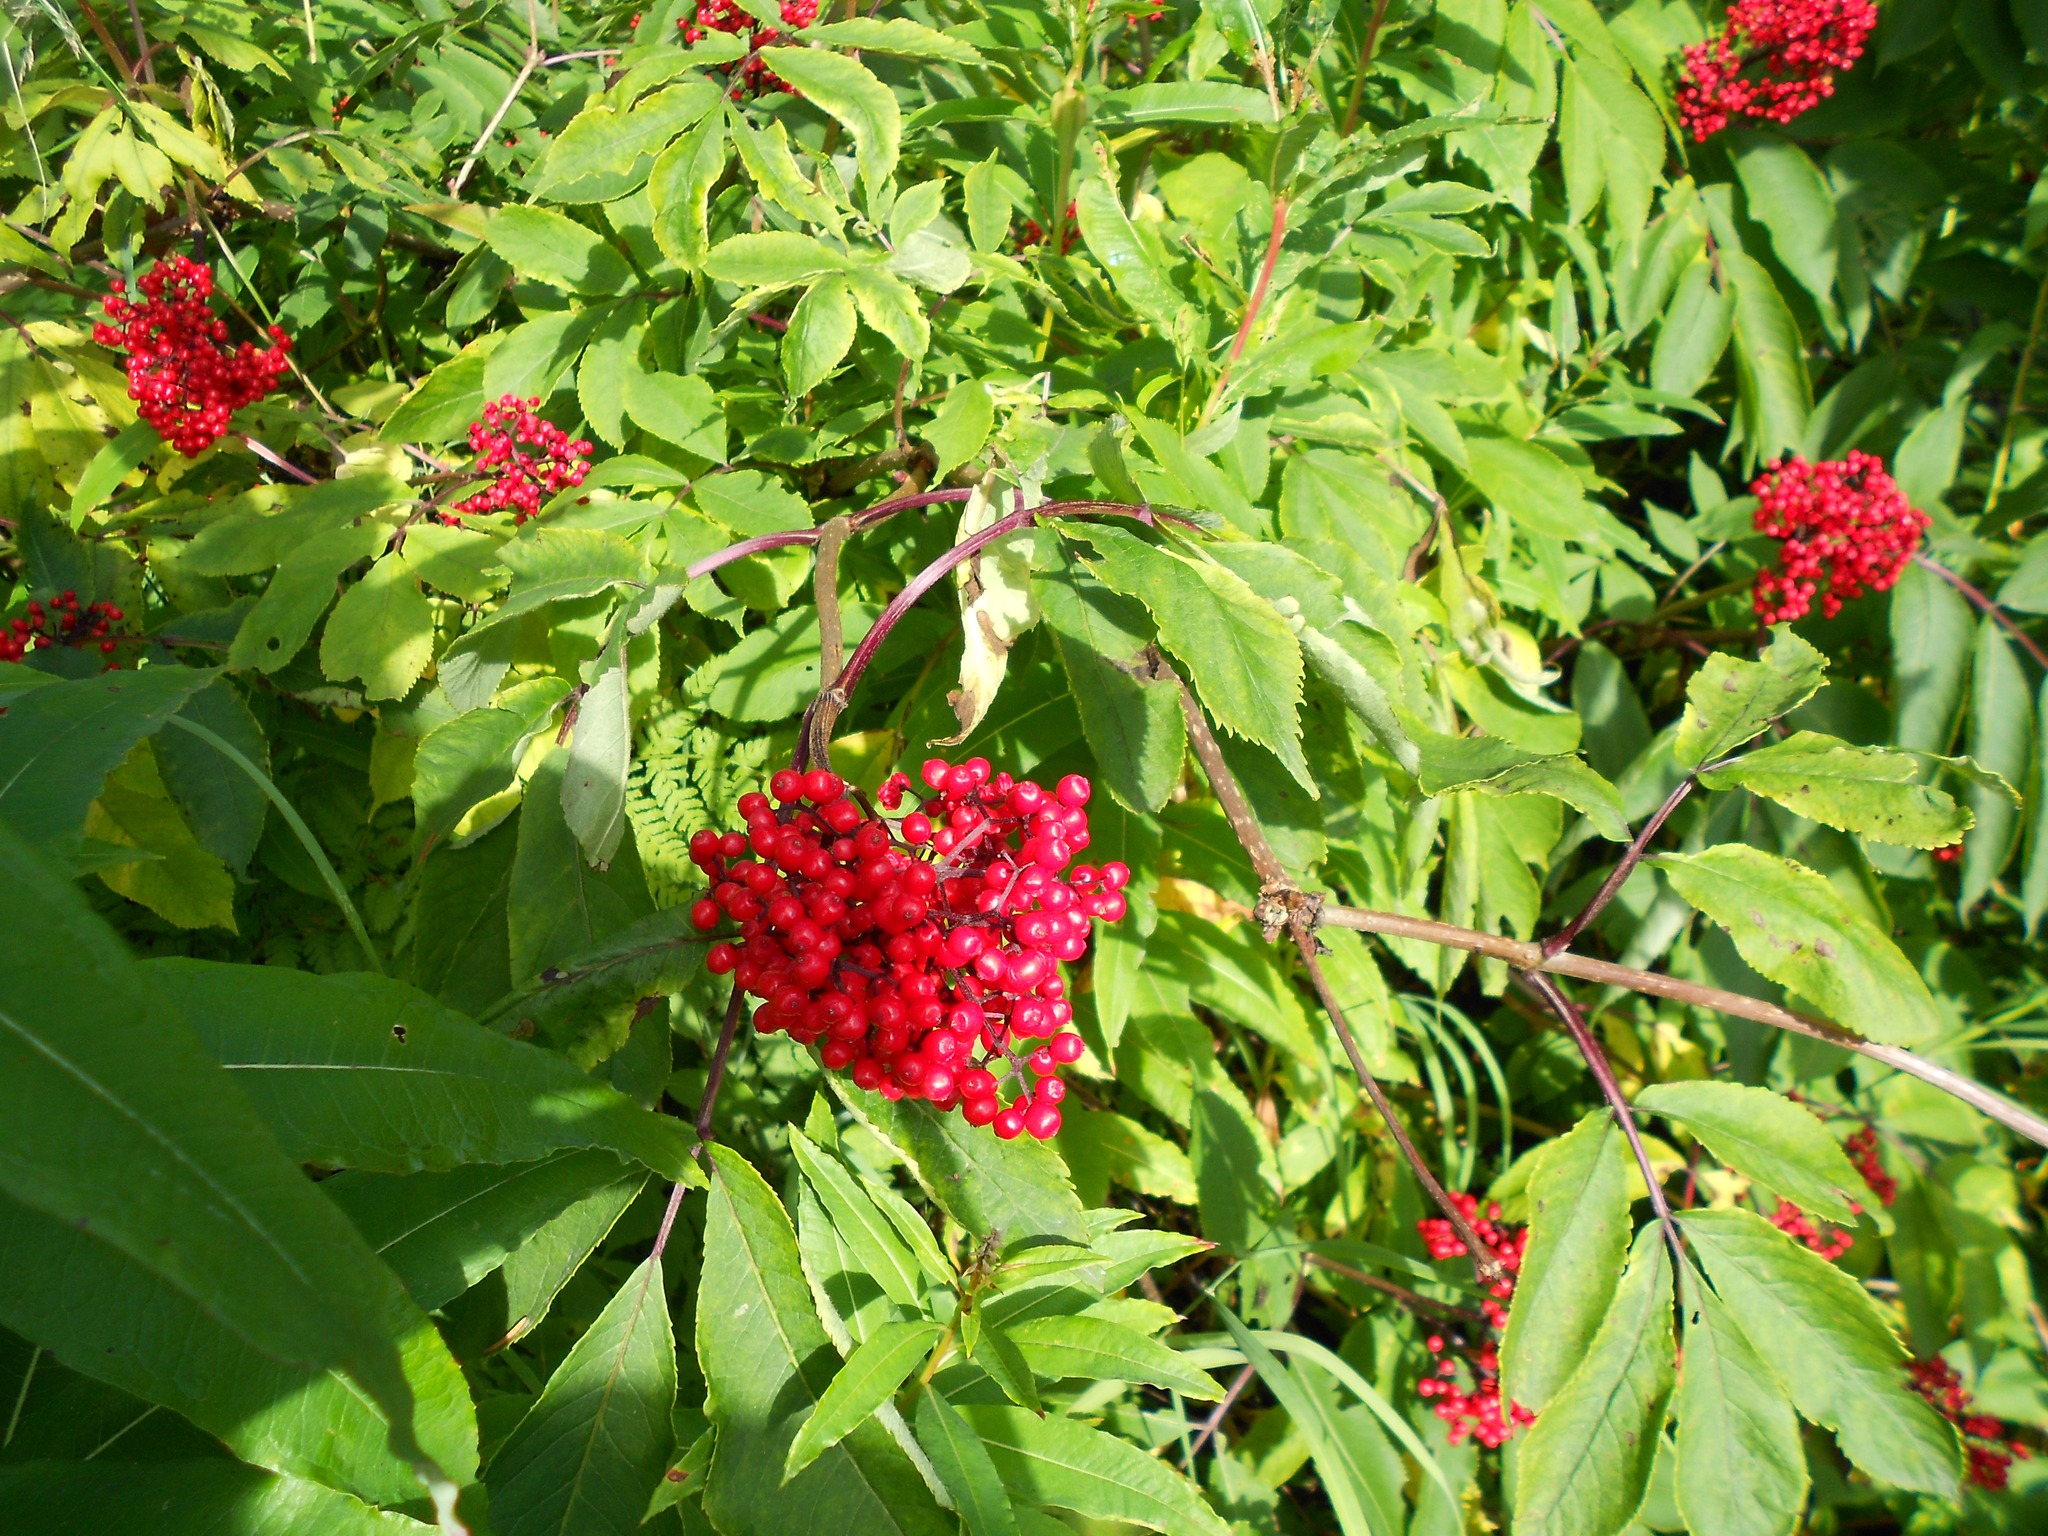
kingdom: Plantae
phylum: Tracheophyta
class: Magnoliopsida
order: Dipsacales
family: Viburnaceae
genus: Sambucus
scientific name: Sambucus racemosa
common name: Red-berried elder
